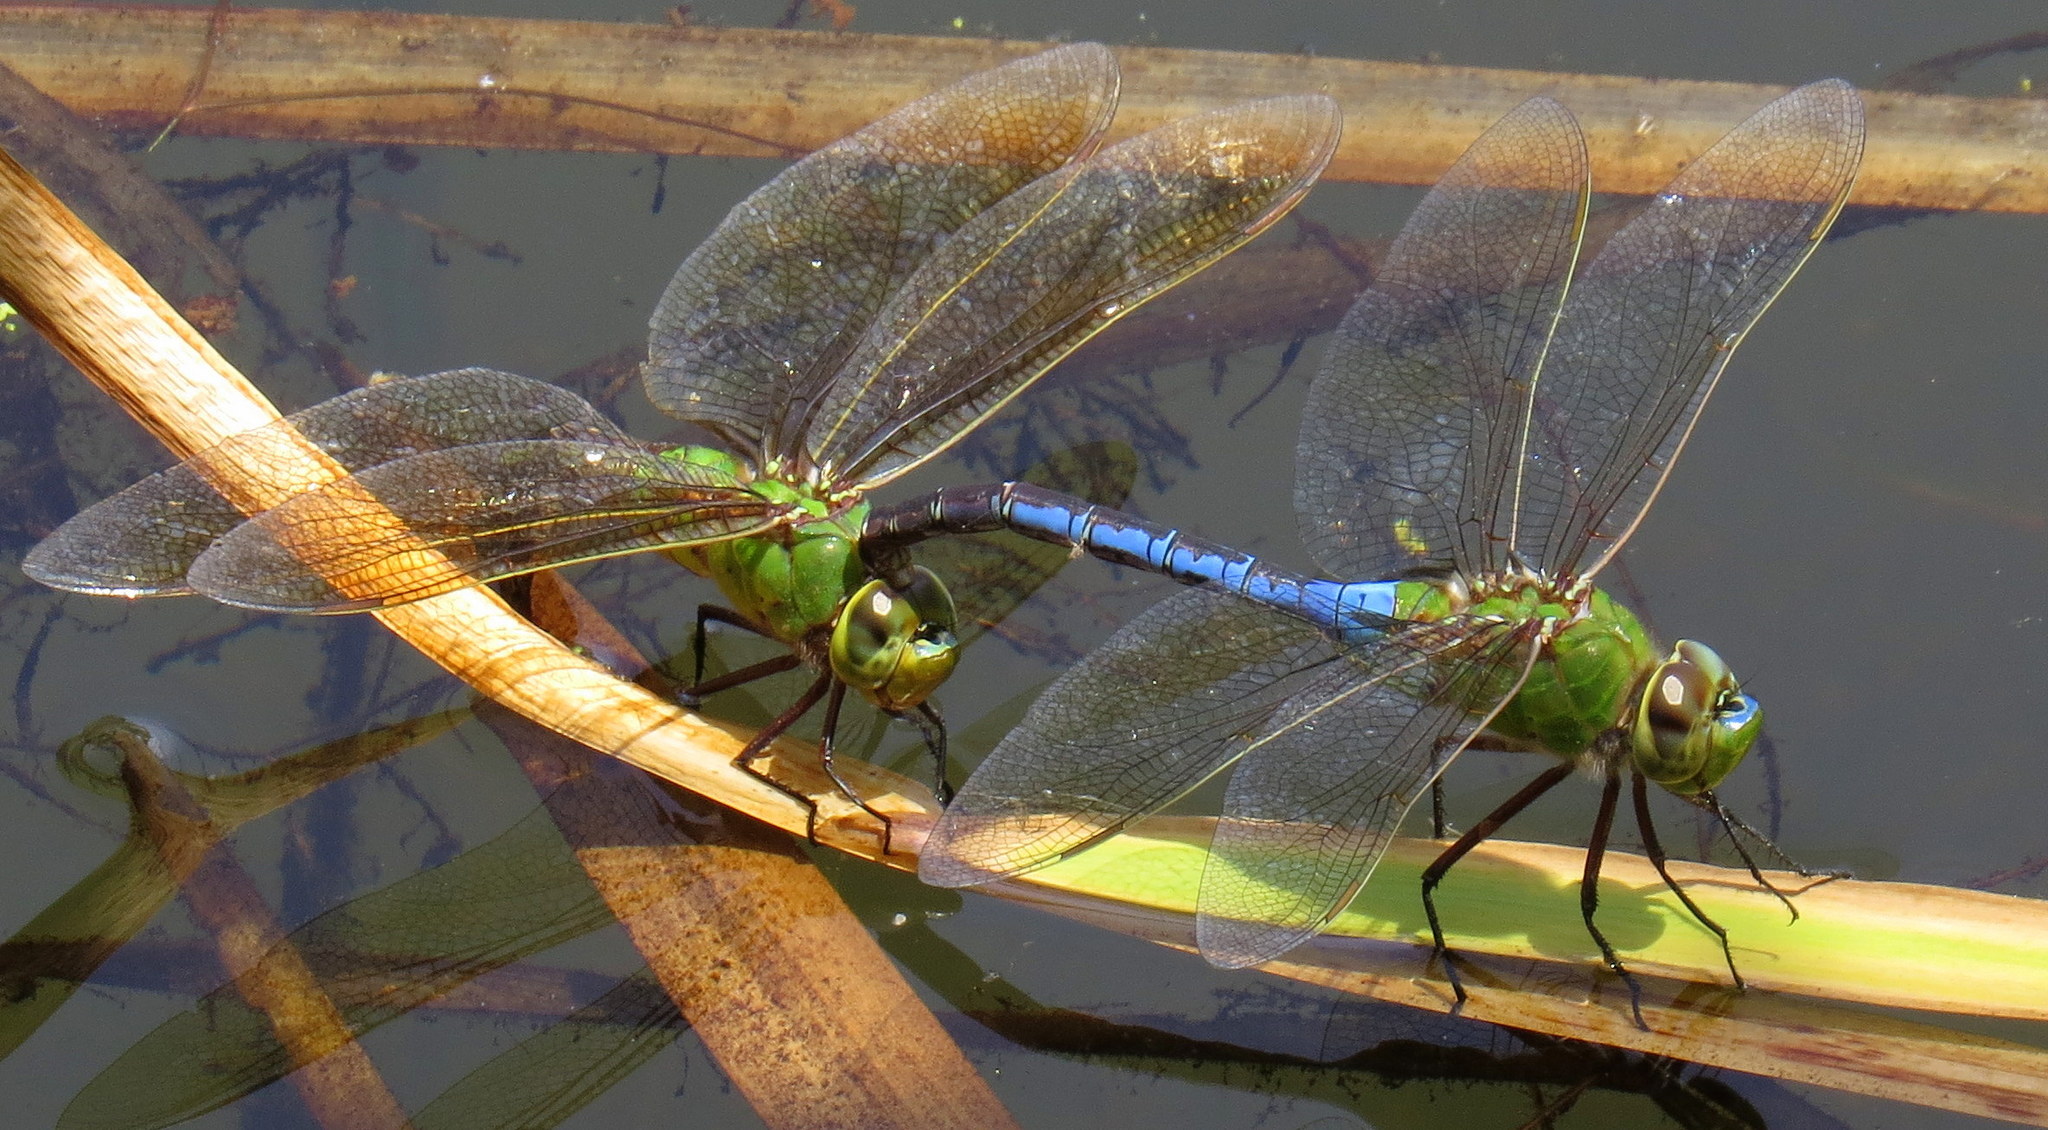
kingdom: Animalia
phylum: Arthropoda
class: Insecta
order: Odonata
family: Aeshnidae
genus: Anax
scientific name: Anax junius
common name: Common green darner
